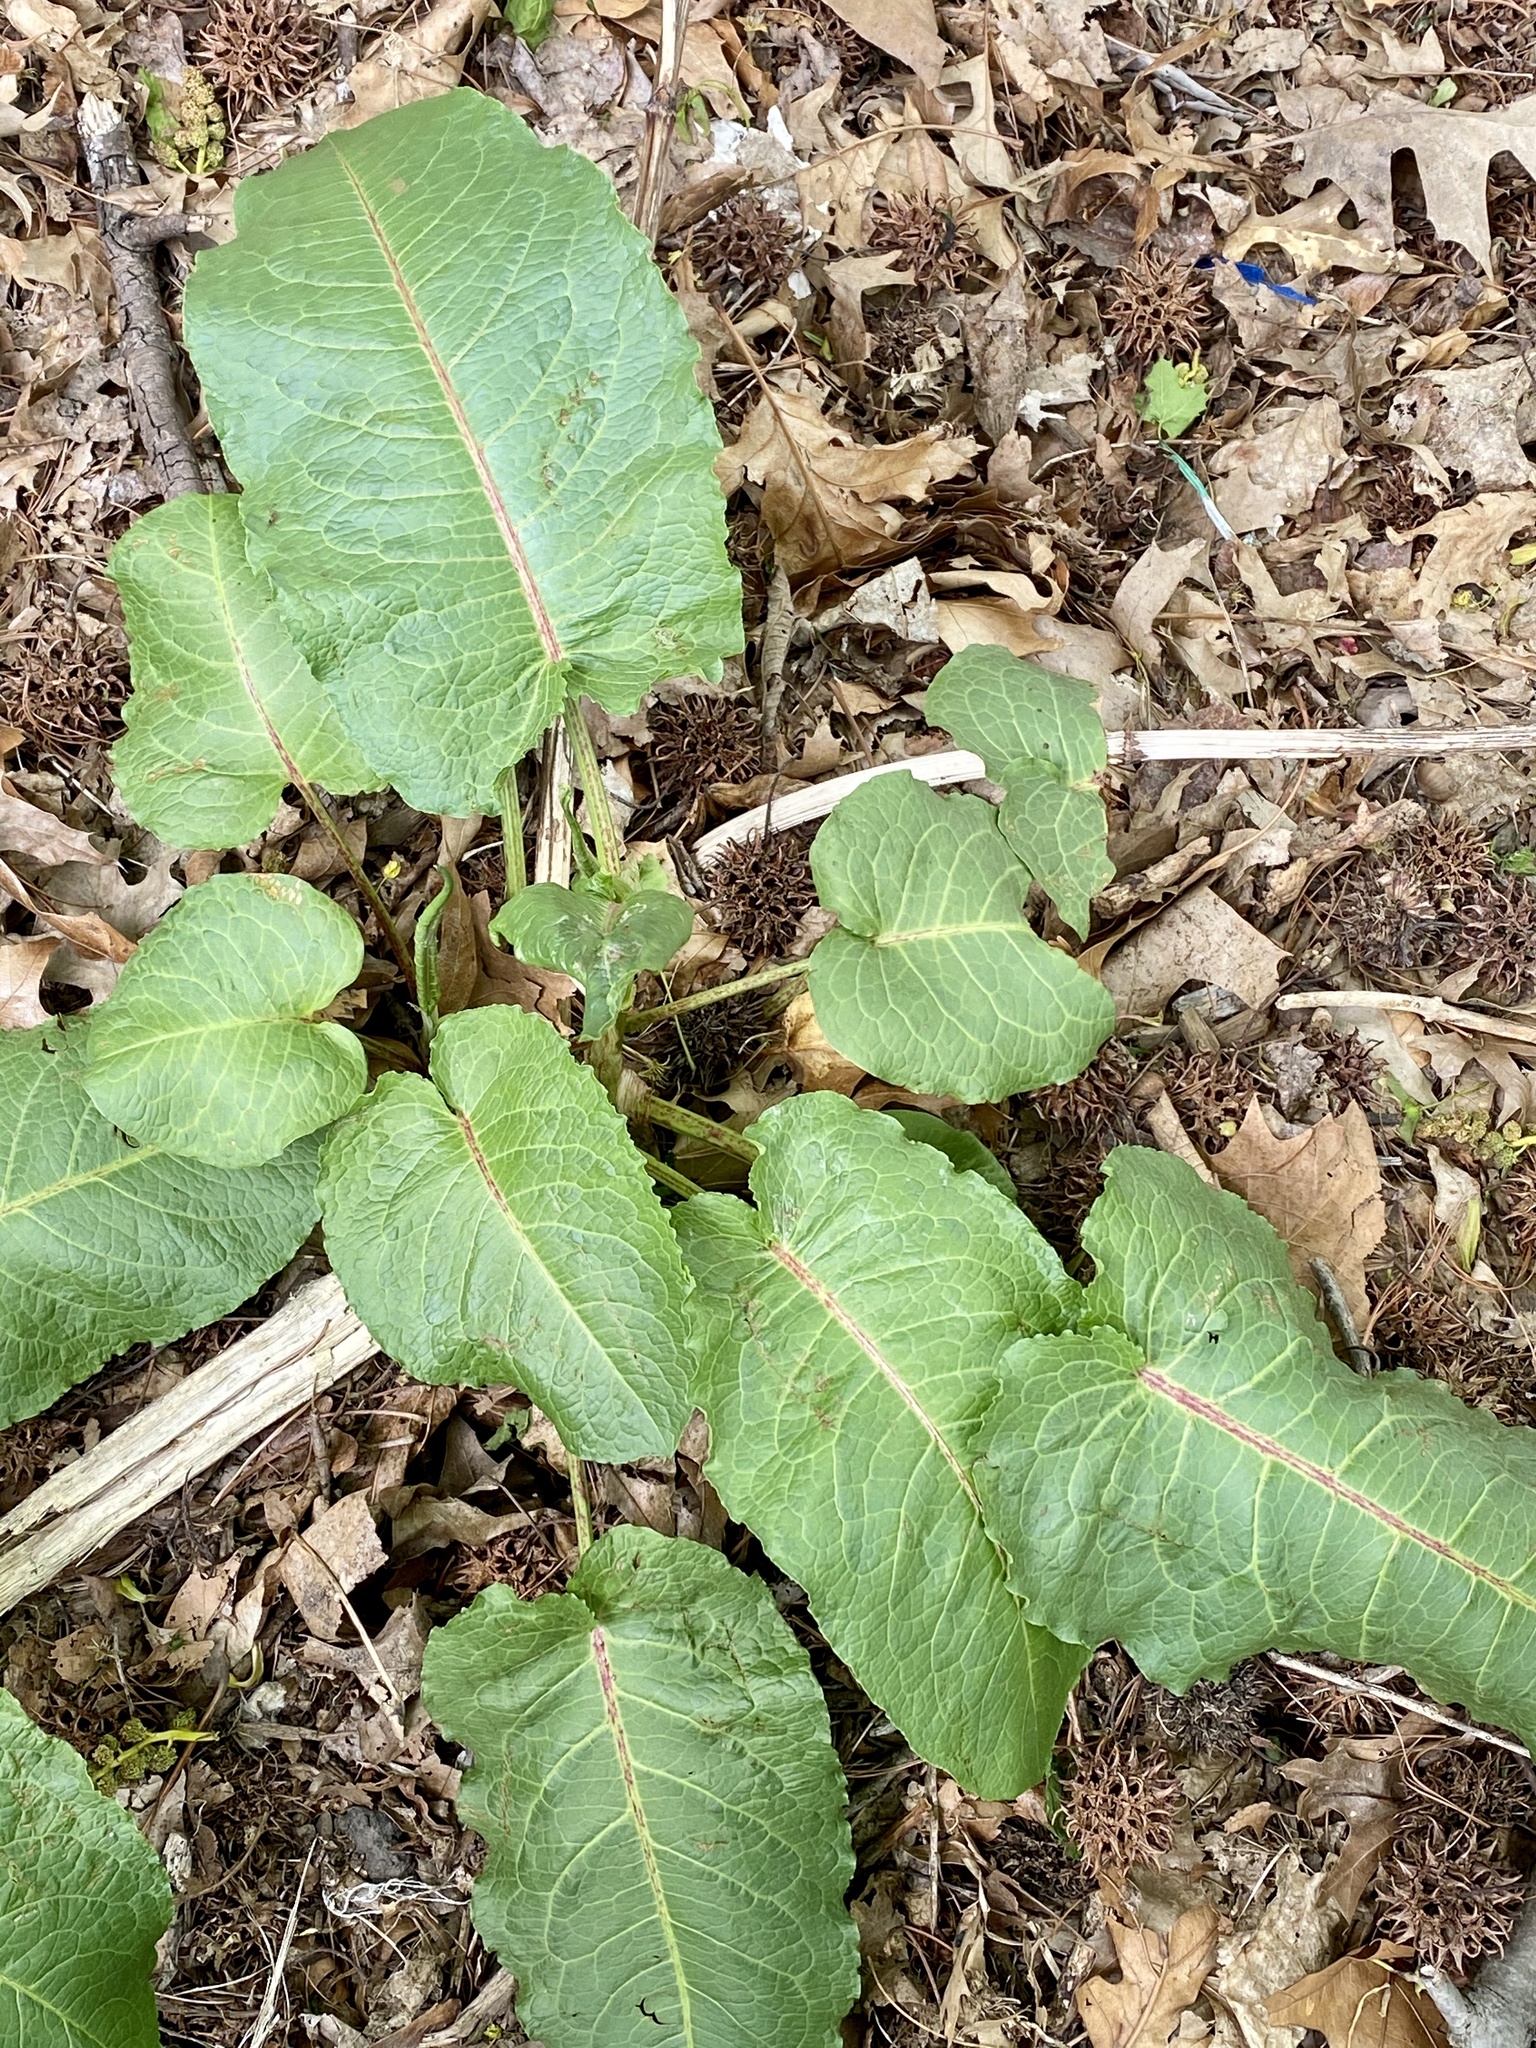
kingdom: Plantae
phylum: Tracheophyta
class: Magnoliopsida
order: Caryophyllales
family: Polygonaceae
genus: Rumex
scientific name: Rumex obtusifolius
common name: Bitter dock
